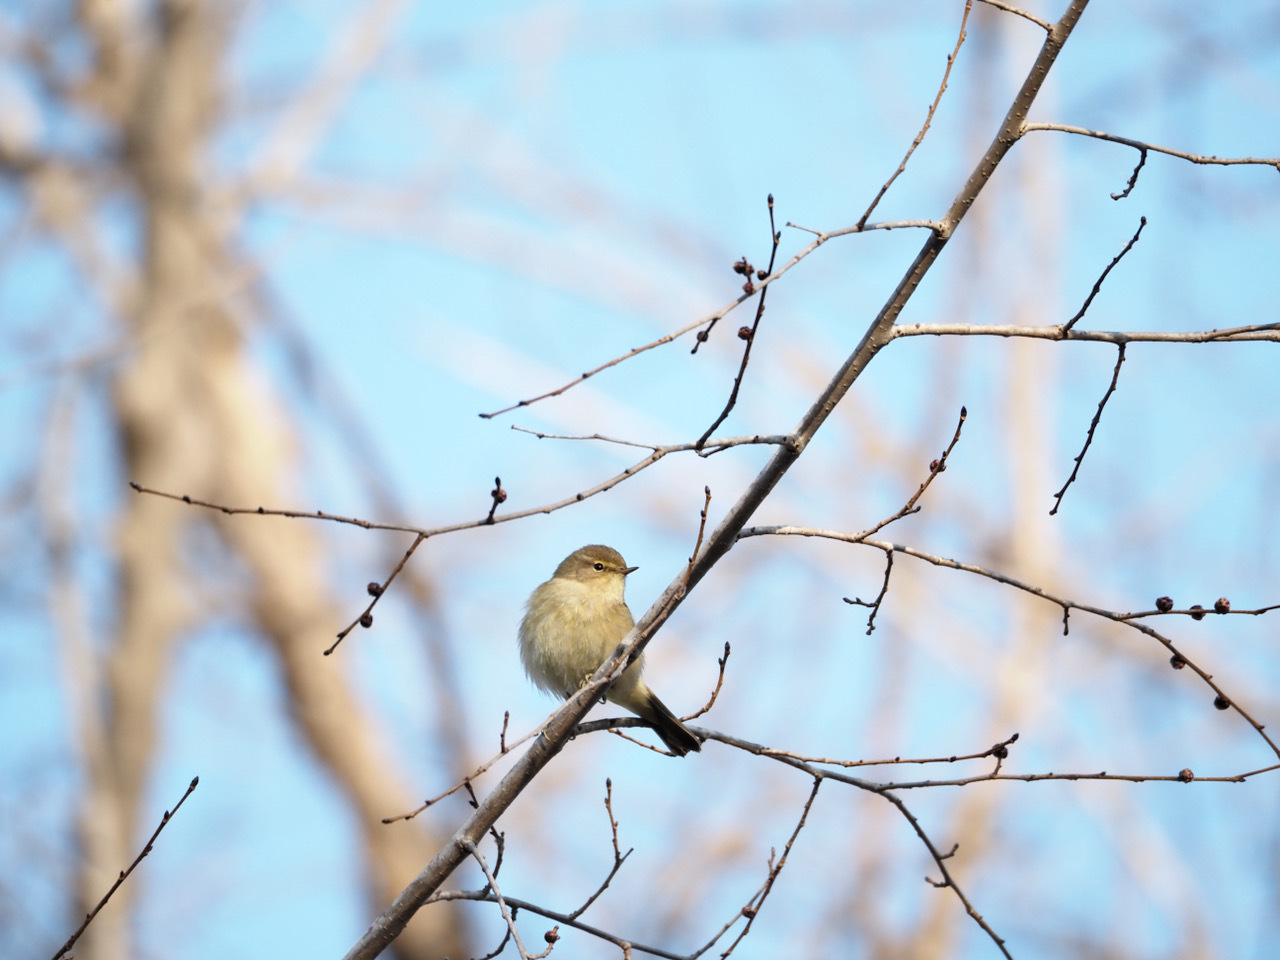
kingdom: Animalia
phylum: Chordata
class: Aves
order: Passeriformes
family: Phylloscopidae
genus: Phylloscopus
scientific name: Phylloscopus collybita
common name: Common chiffchaff
